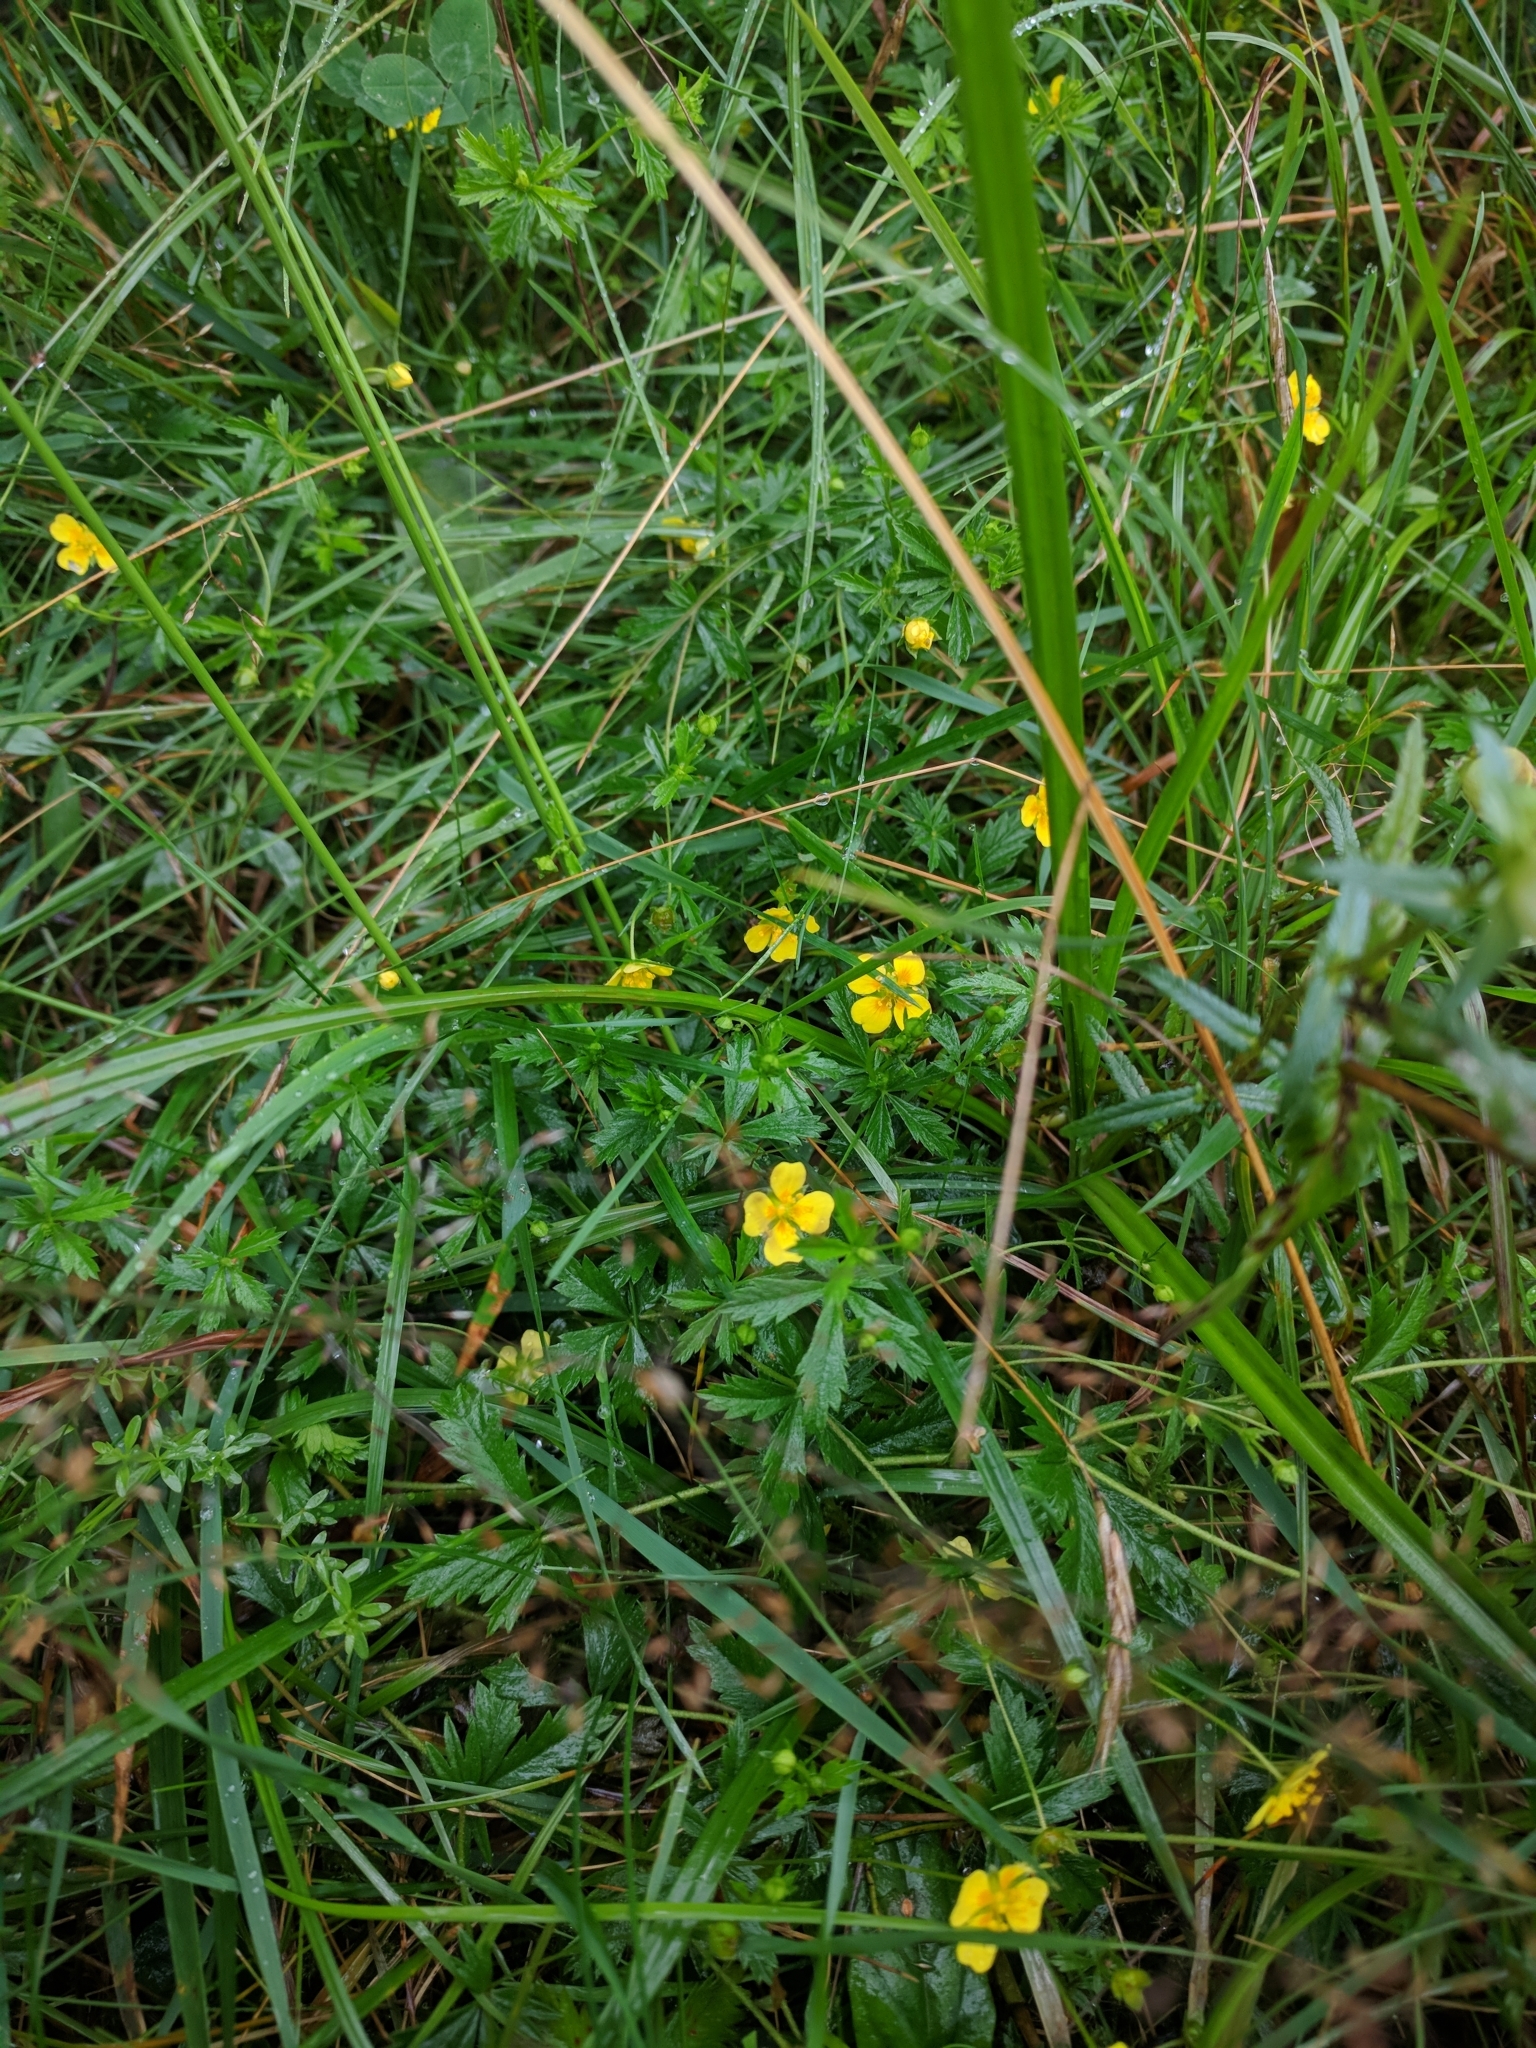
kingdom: Plantae
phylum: Tracheophyta
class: Magnoliopsida
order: Rosales
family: Rosaceae
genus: Potentilla
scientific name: Potentilla erecta
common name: Tormentil
